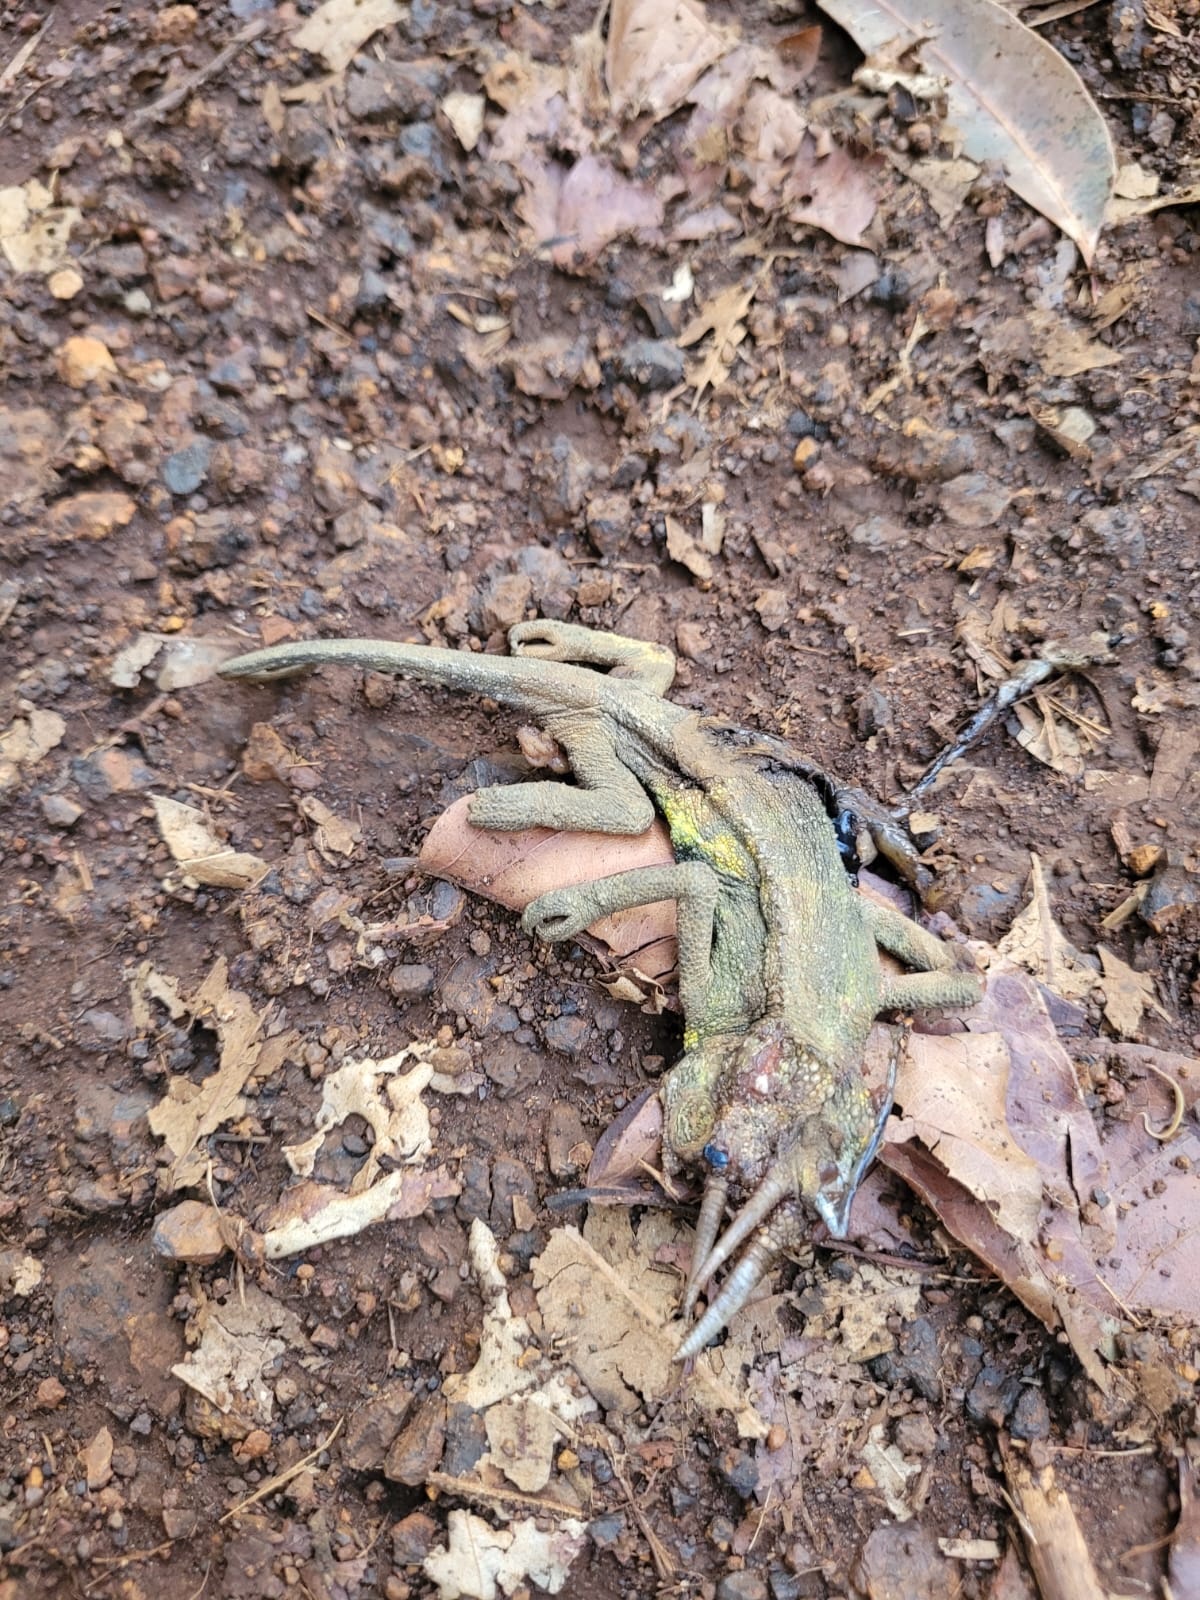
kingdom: Animalia
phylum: Chordata
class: Squamata
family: Chamaeleonidae
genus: Trioceros
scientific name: Trioceros jacksonii
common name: Jackson's chameleon
